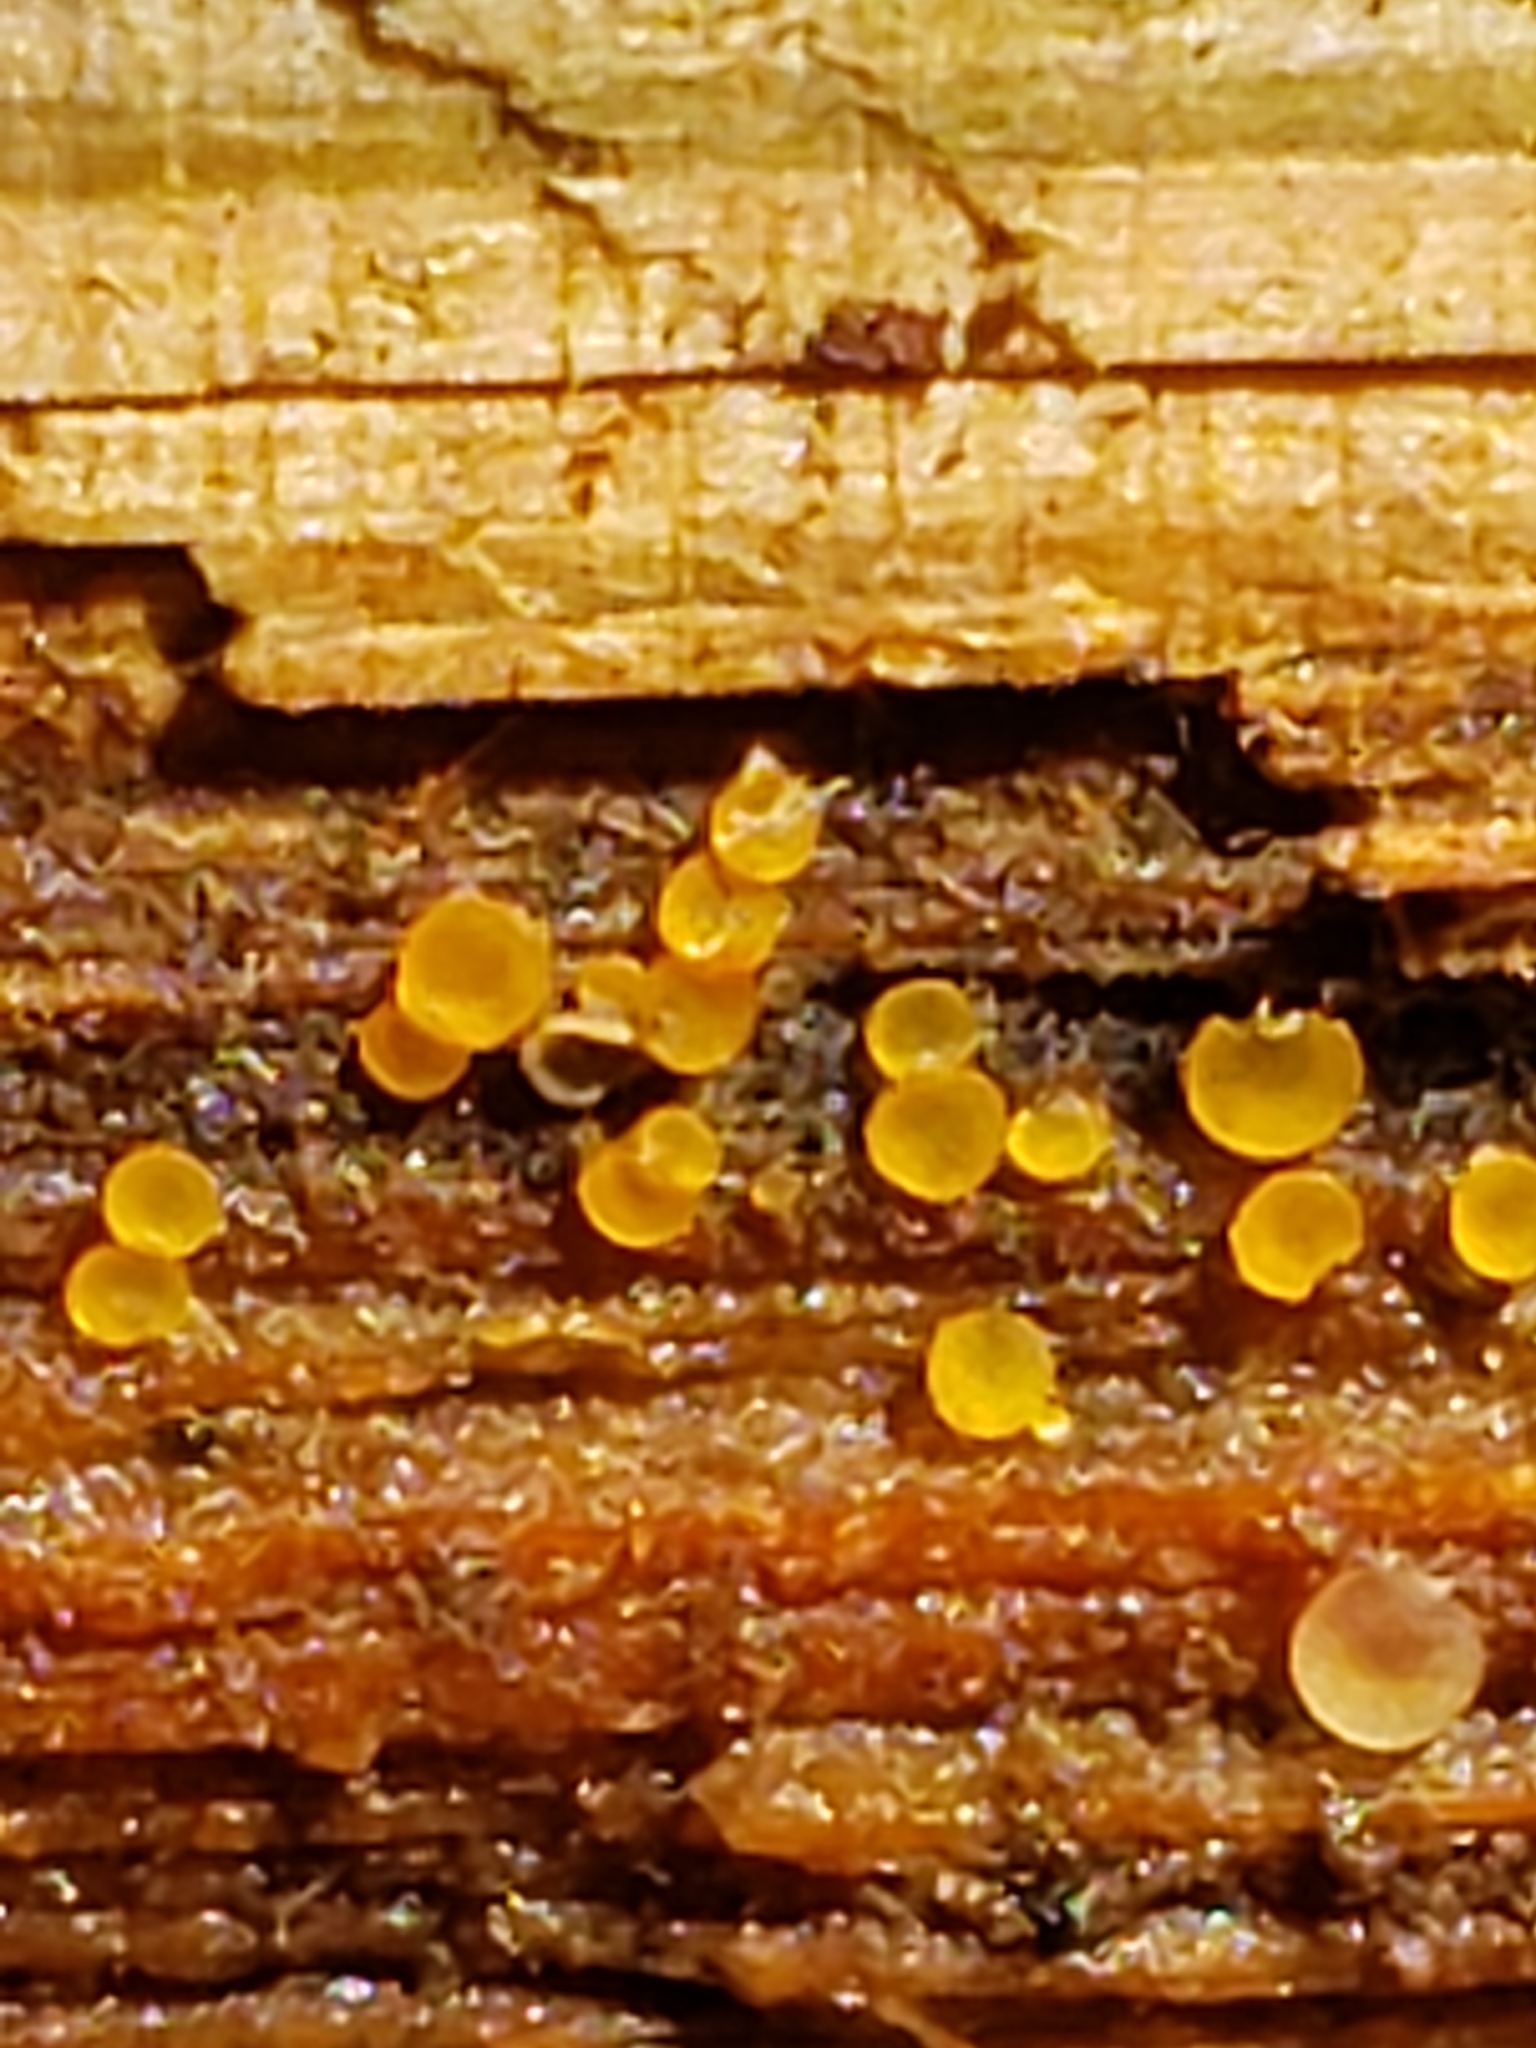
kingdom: Fungi
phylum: Ascomycota
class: Orbiliomycetes
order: Orbiliales
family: Orbiliaceae
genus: Orbilia
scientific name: Orbilia
